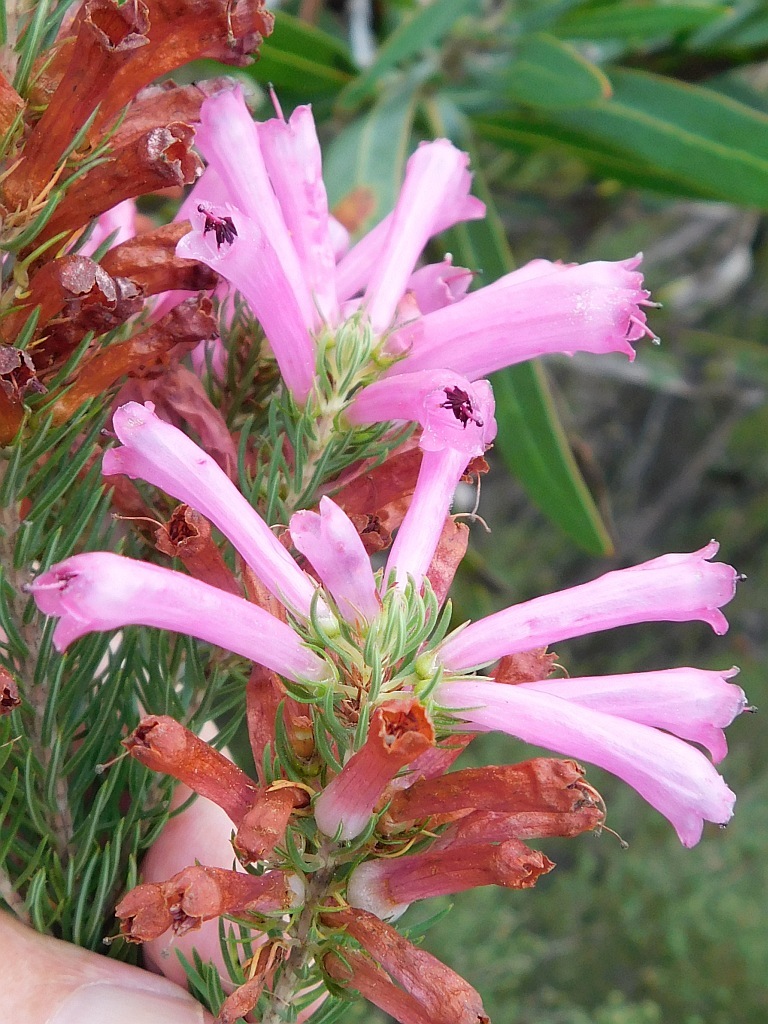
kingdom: Plantae
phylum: Tracheophyta
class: Magnoliopsida
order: Ericales
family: Ericaceae
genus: Erica
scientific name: Erica pinea
